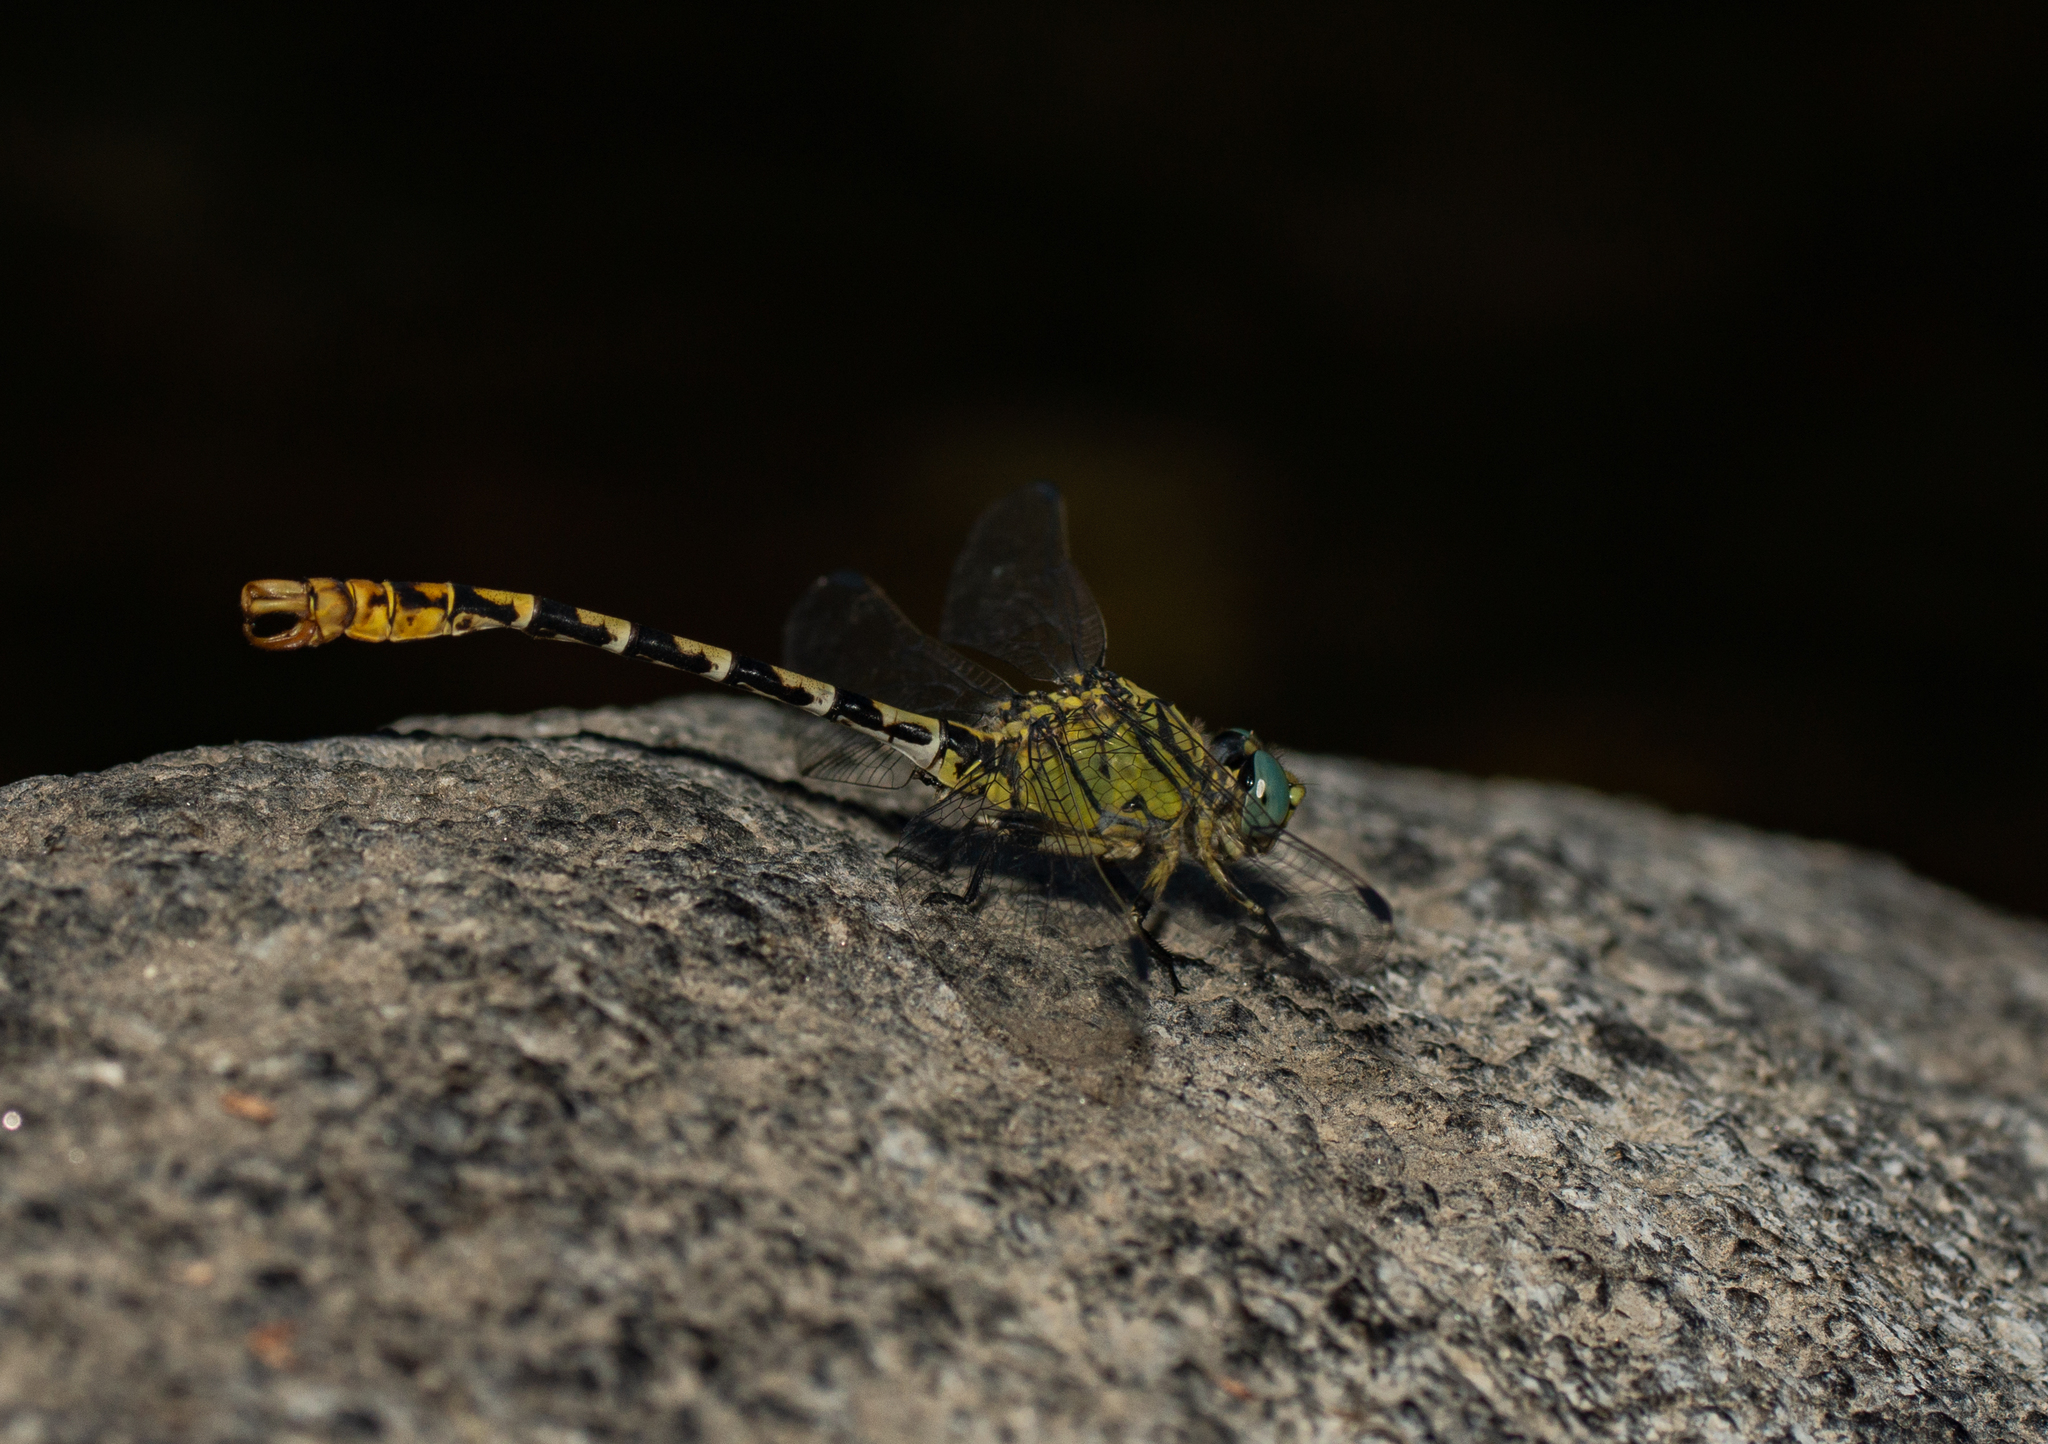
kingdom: Animalia
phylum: Arthropoda
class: Insecta
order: Odonata
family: Gomphidae
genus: Onychogomphus
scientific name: Onychogomphus forcipatus
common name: Small pincertail
